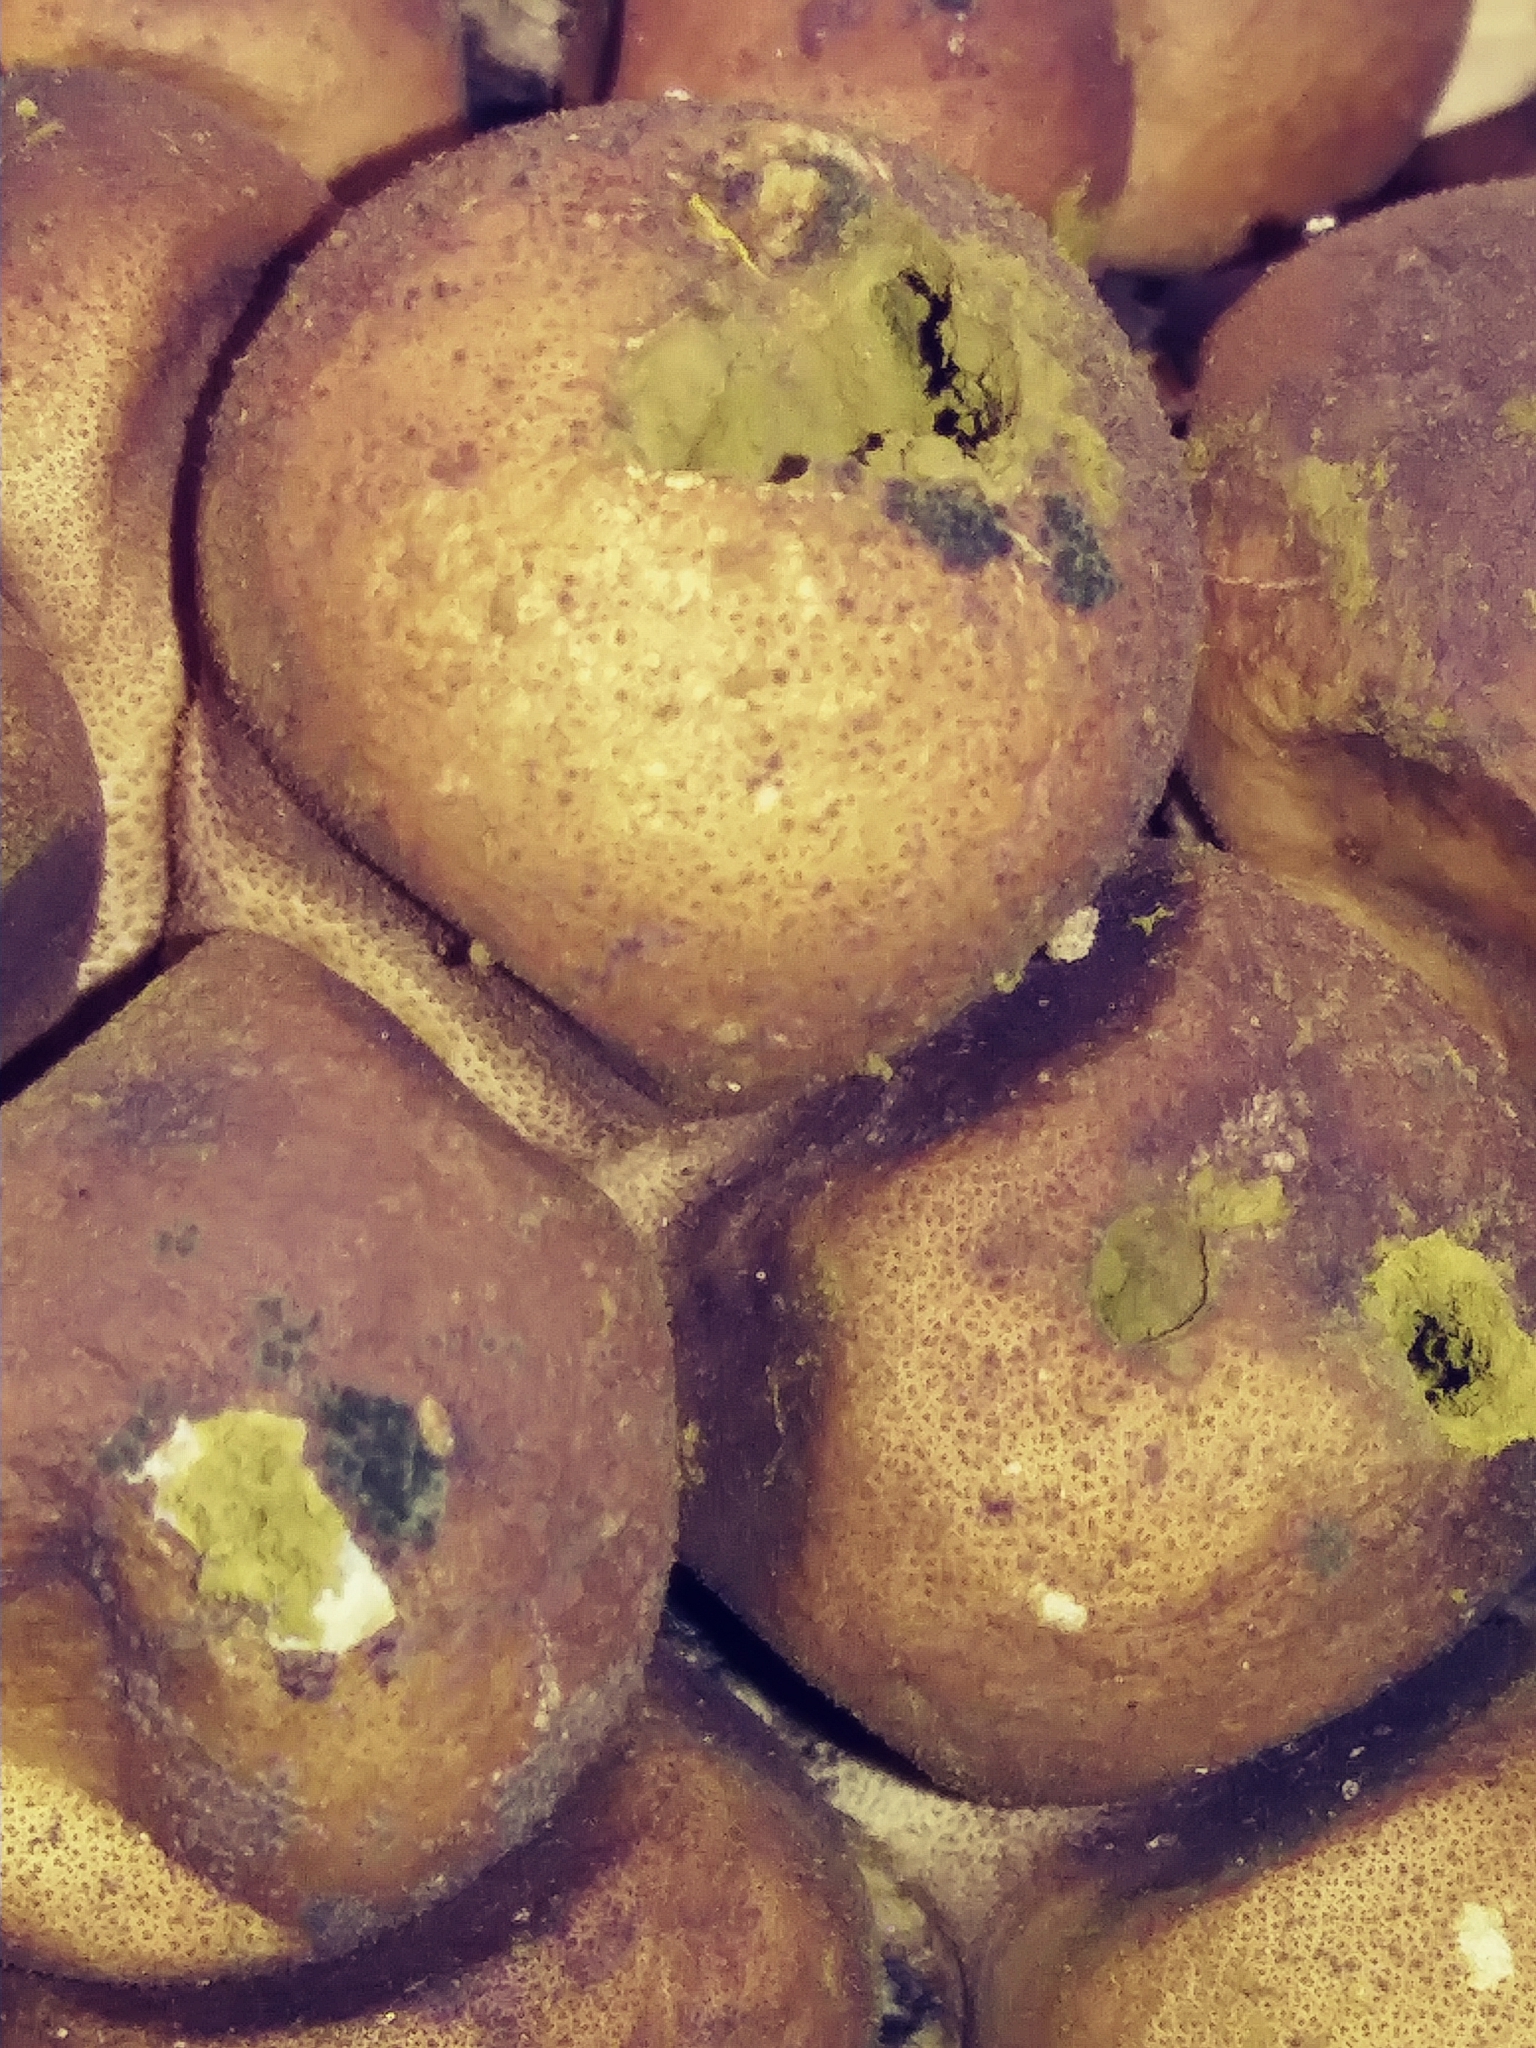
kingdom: Fungi
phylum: Basidiomycota
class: Agaricomycetes
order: Agaricales
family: Lycoperdaceae
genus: Apioperdon
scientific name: Apioperdon pyriforme
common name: Pear-shaped puffball
